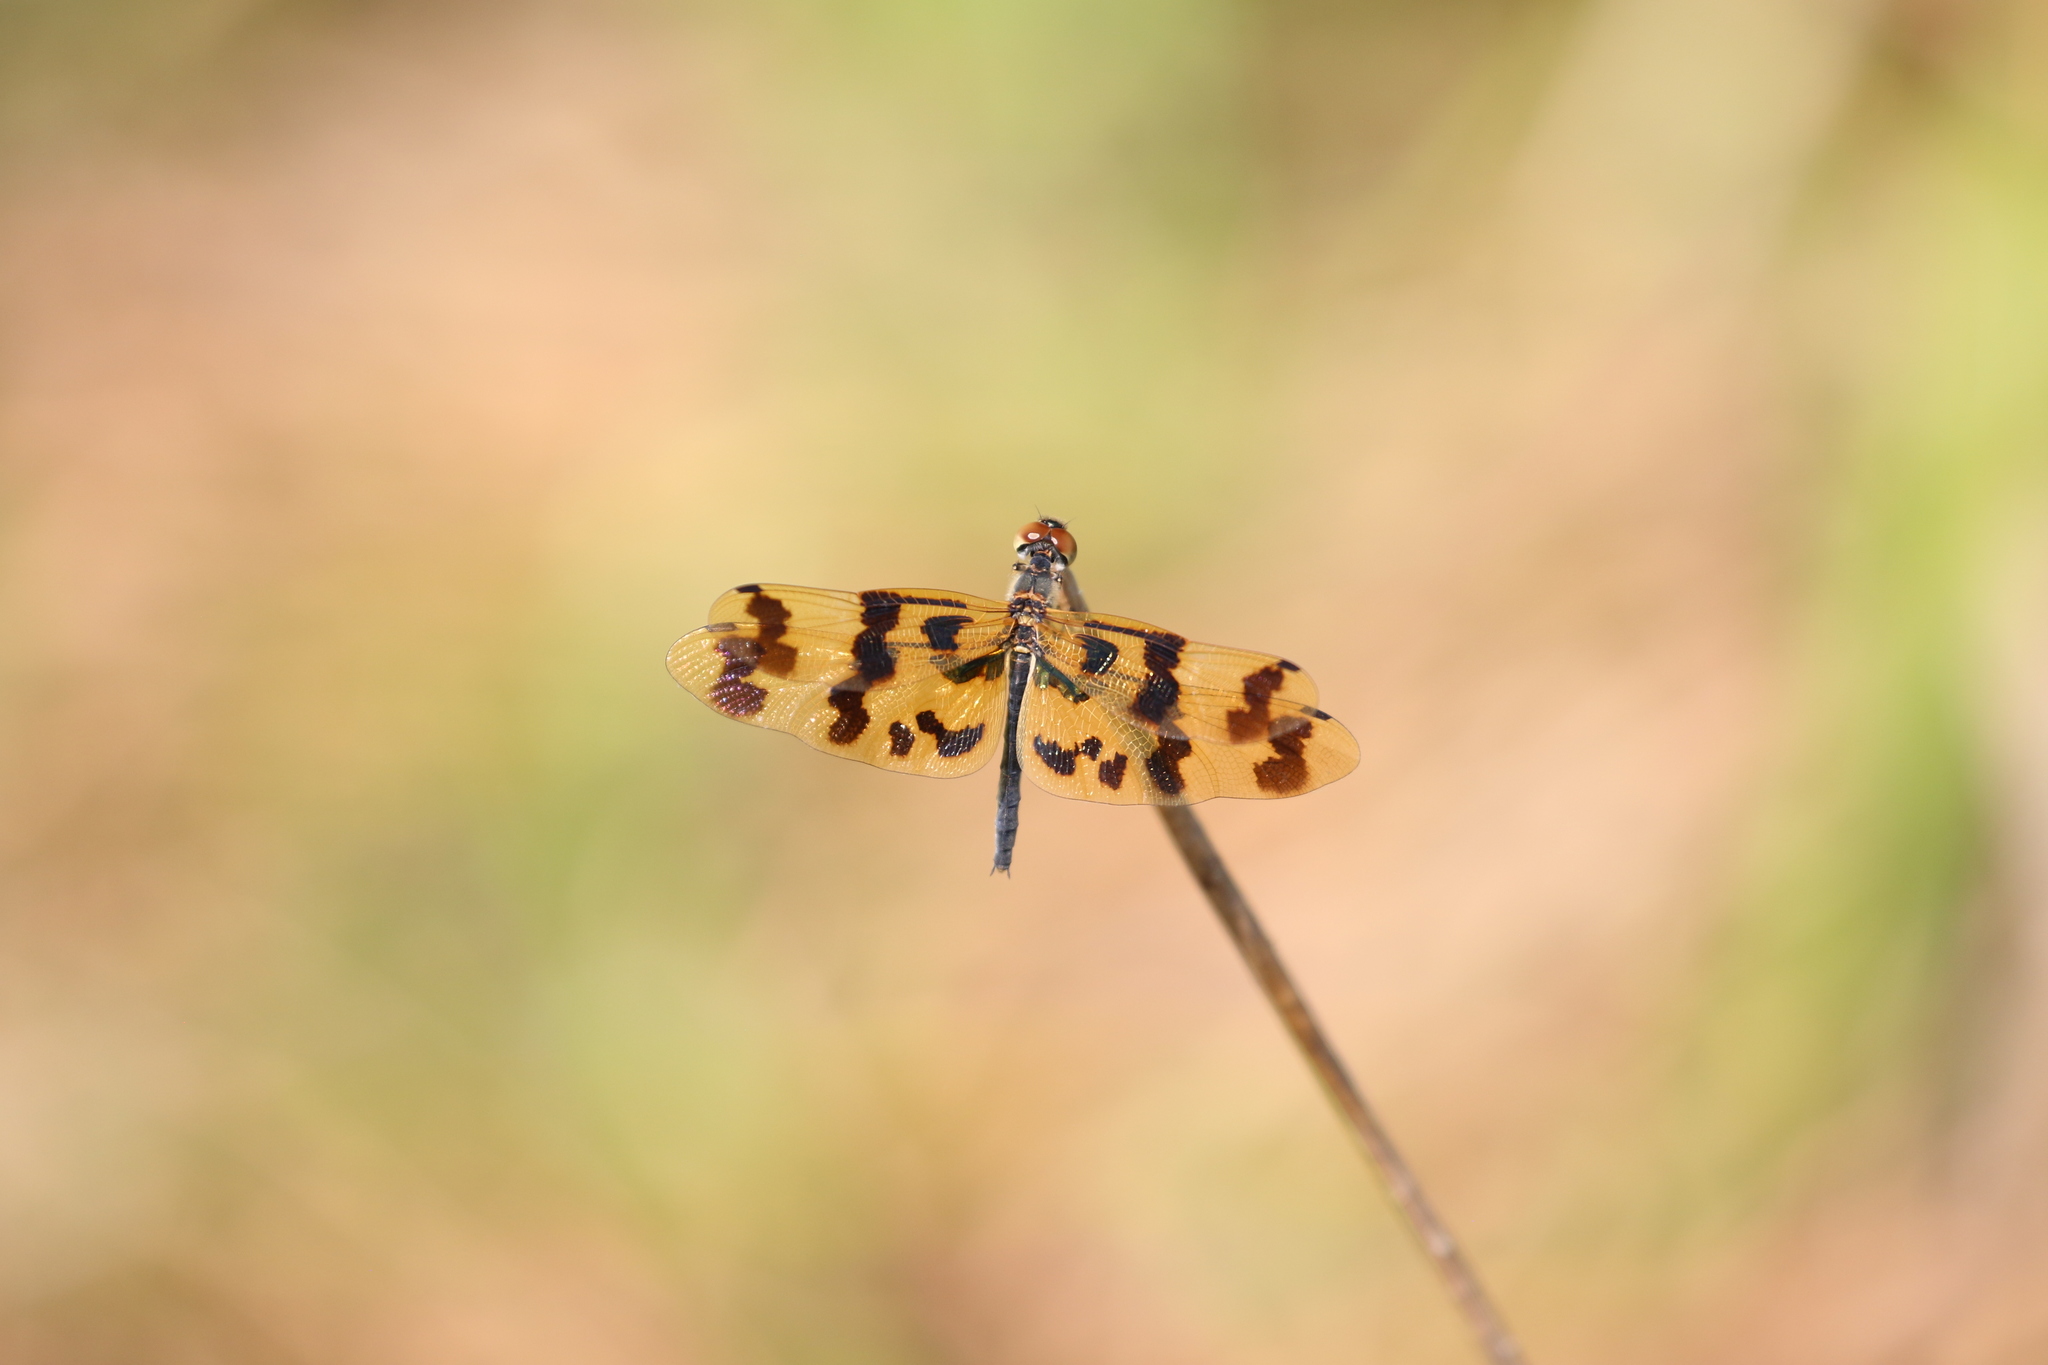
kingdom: Animalia
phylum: Arthropoda
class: Insecta
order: Odonata
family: Libellulidae
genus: Rhyothemis
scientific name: Rhyothemis graphiptera
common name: Graphic flutterer
